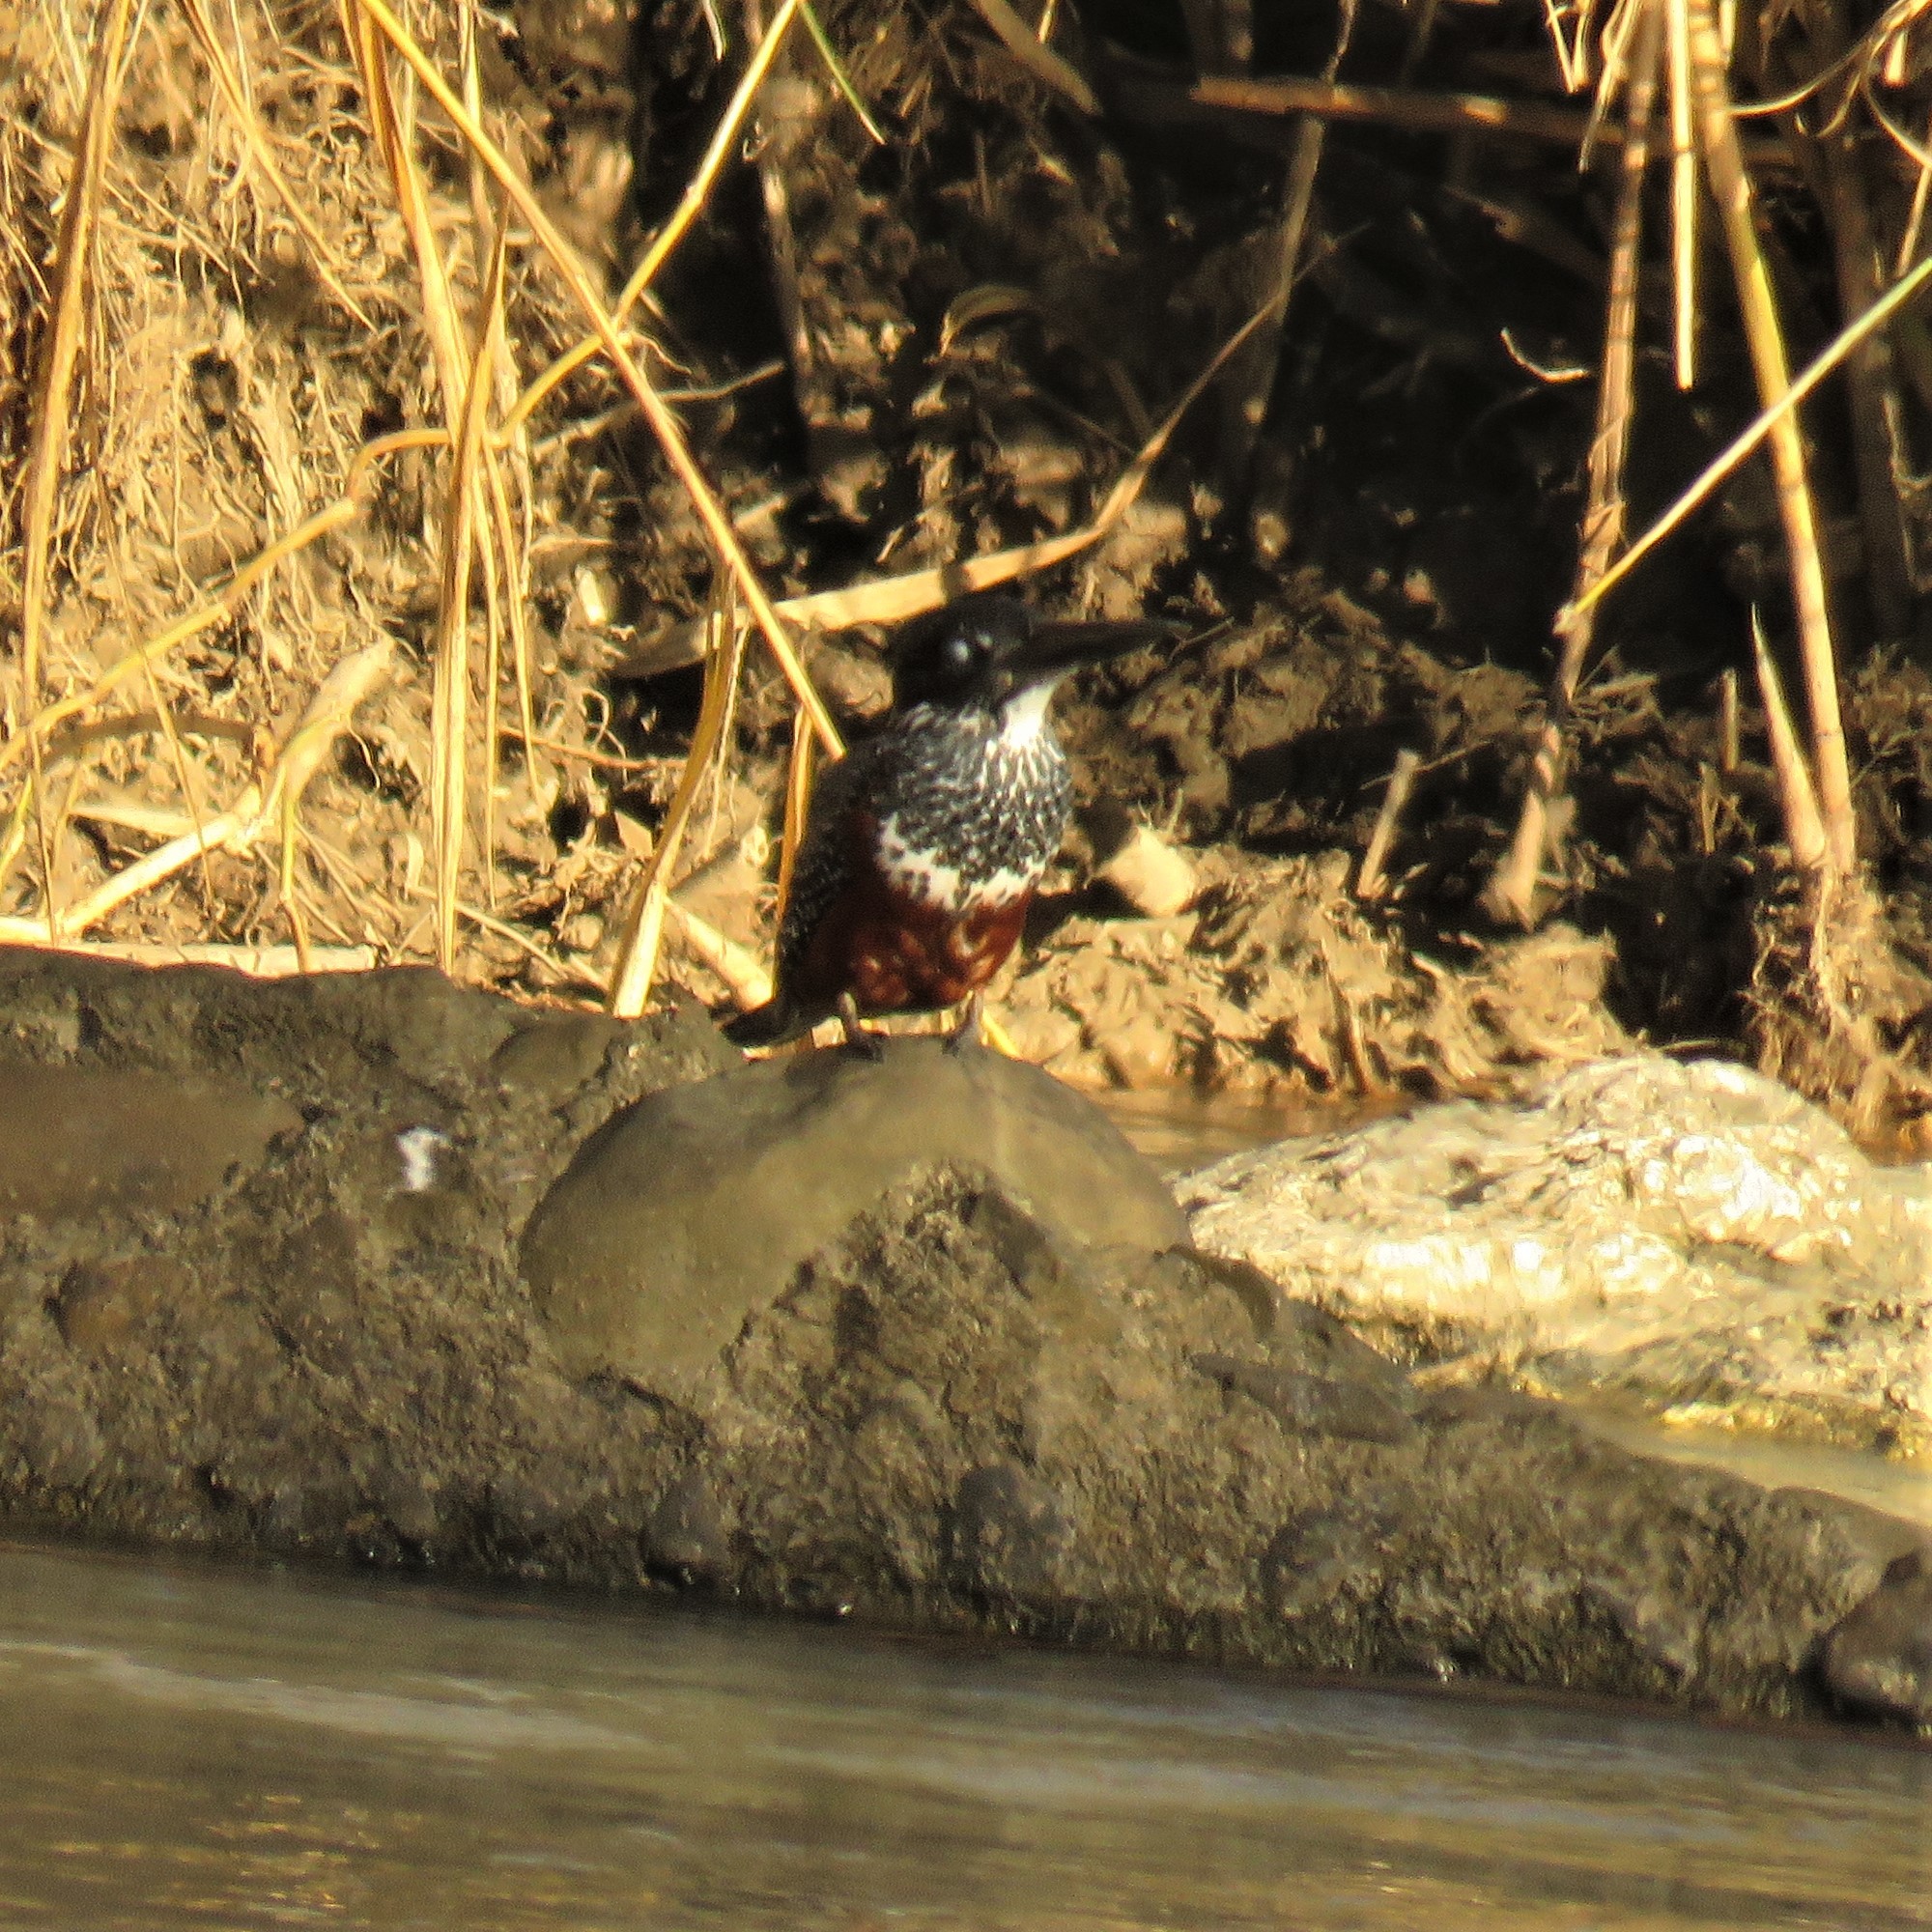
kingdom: Animalia
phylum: Chordata
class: Aves
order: Coraciiformes
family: Alcedinidae
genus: Megaceryle
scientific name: Megaceryle maxima
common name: Giant kingfisher
